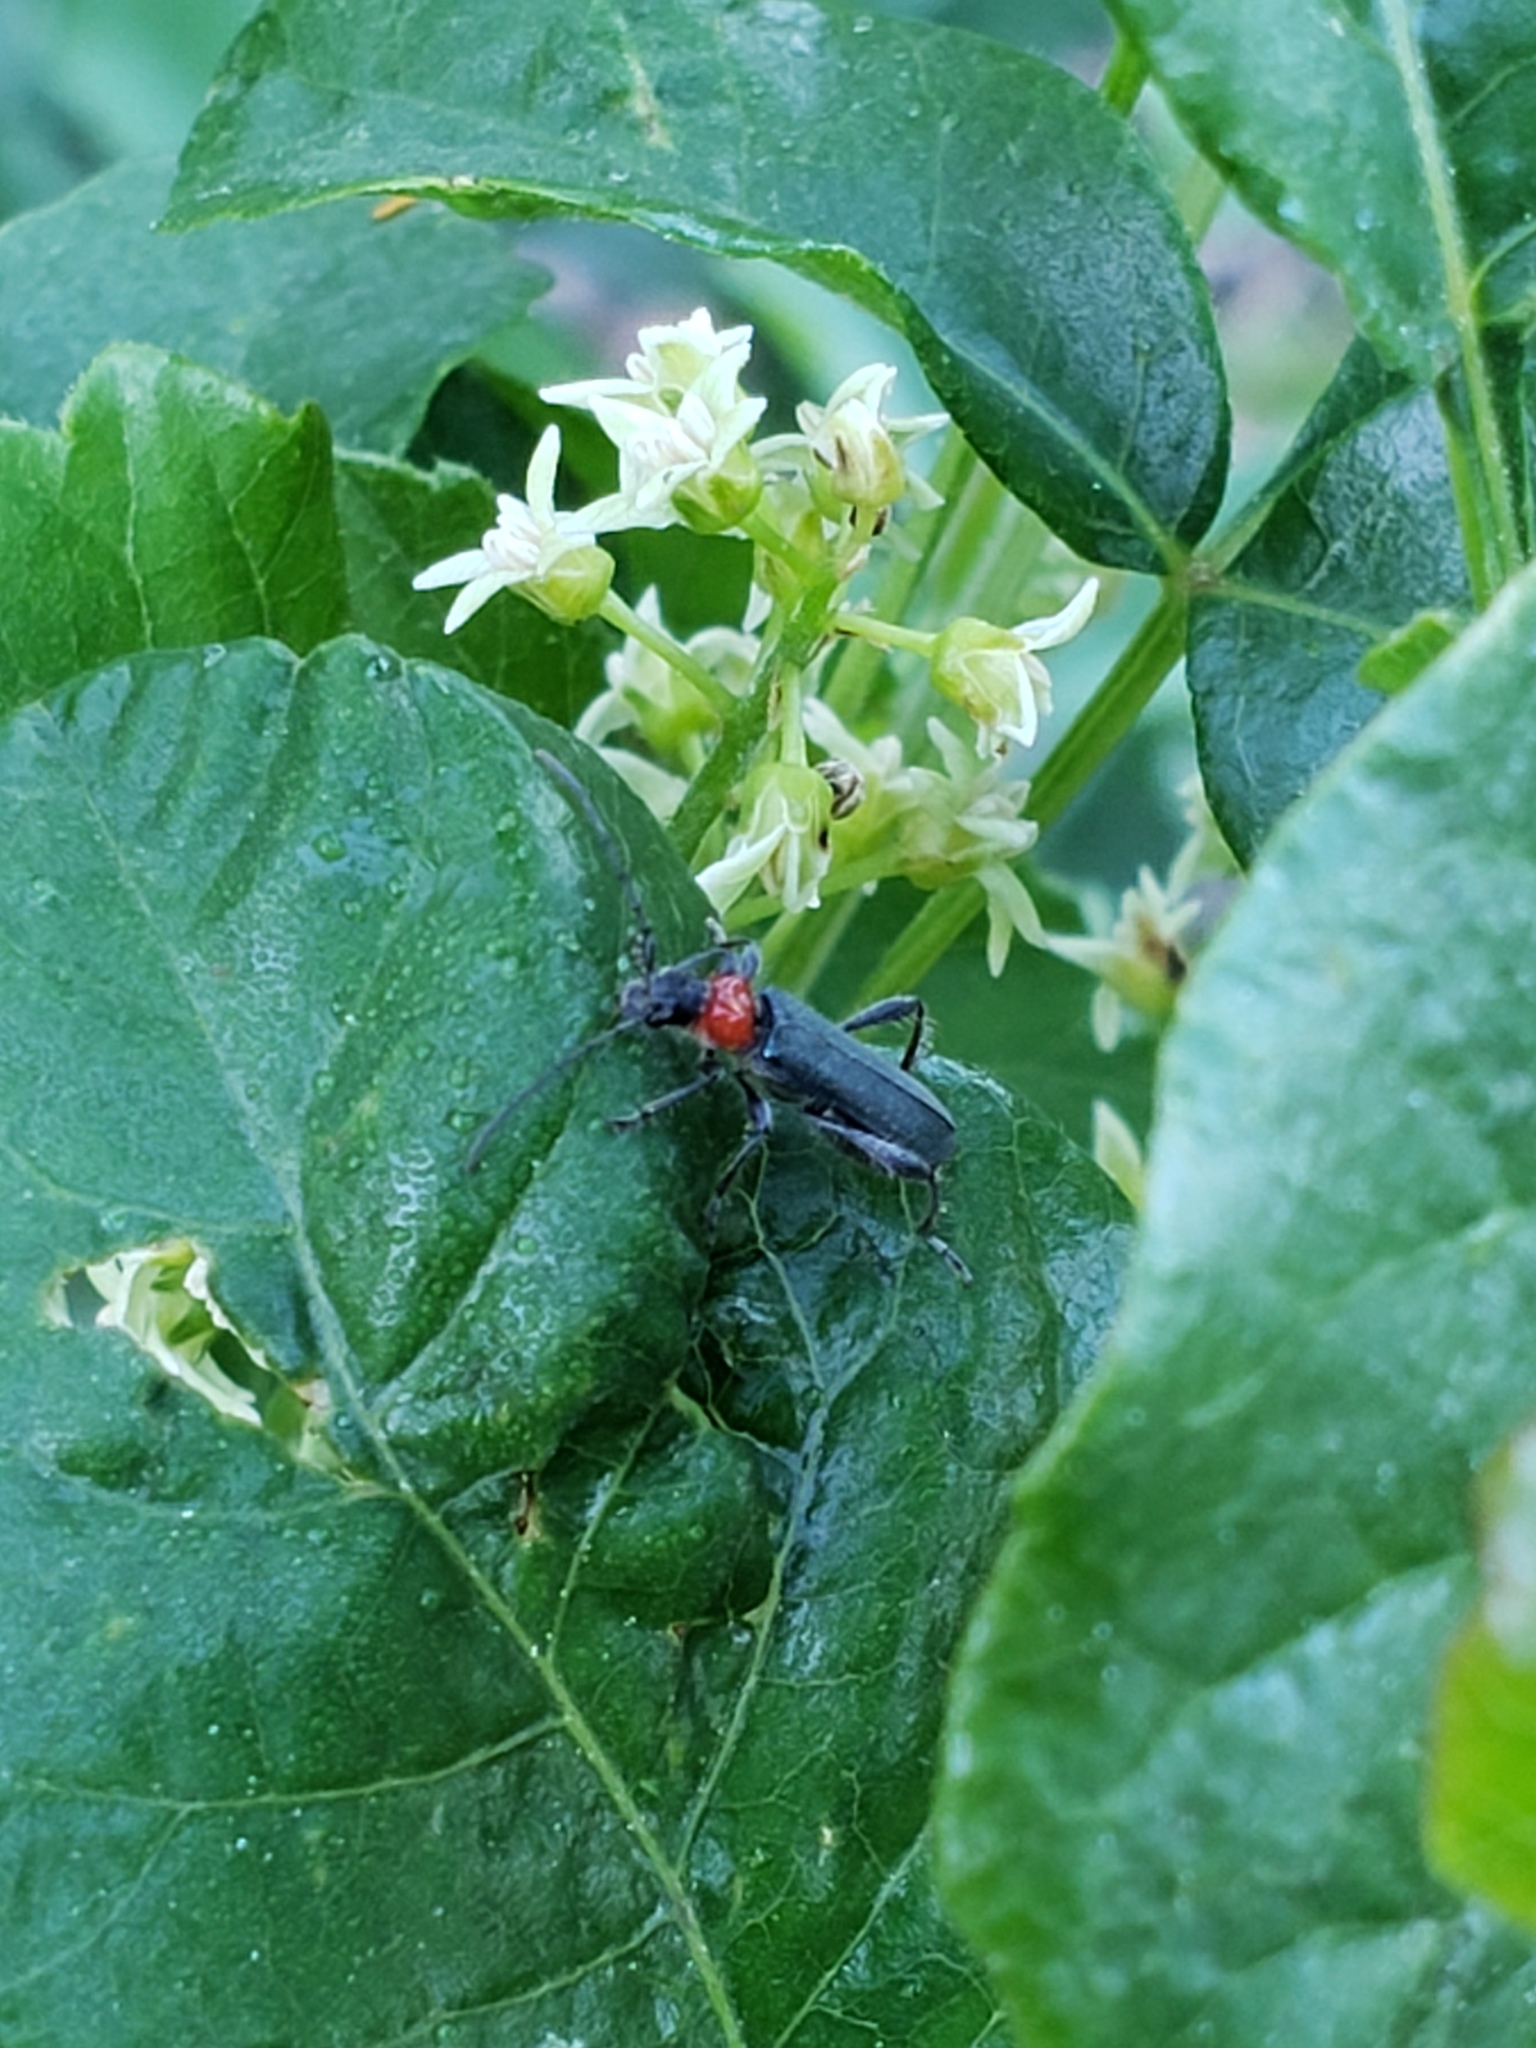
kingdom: Animalia
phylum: Arthropoda
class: Insecta
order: Coleoptera
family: Cerambycidae
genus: Callimus
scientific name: Callimus ruficollis
